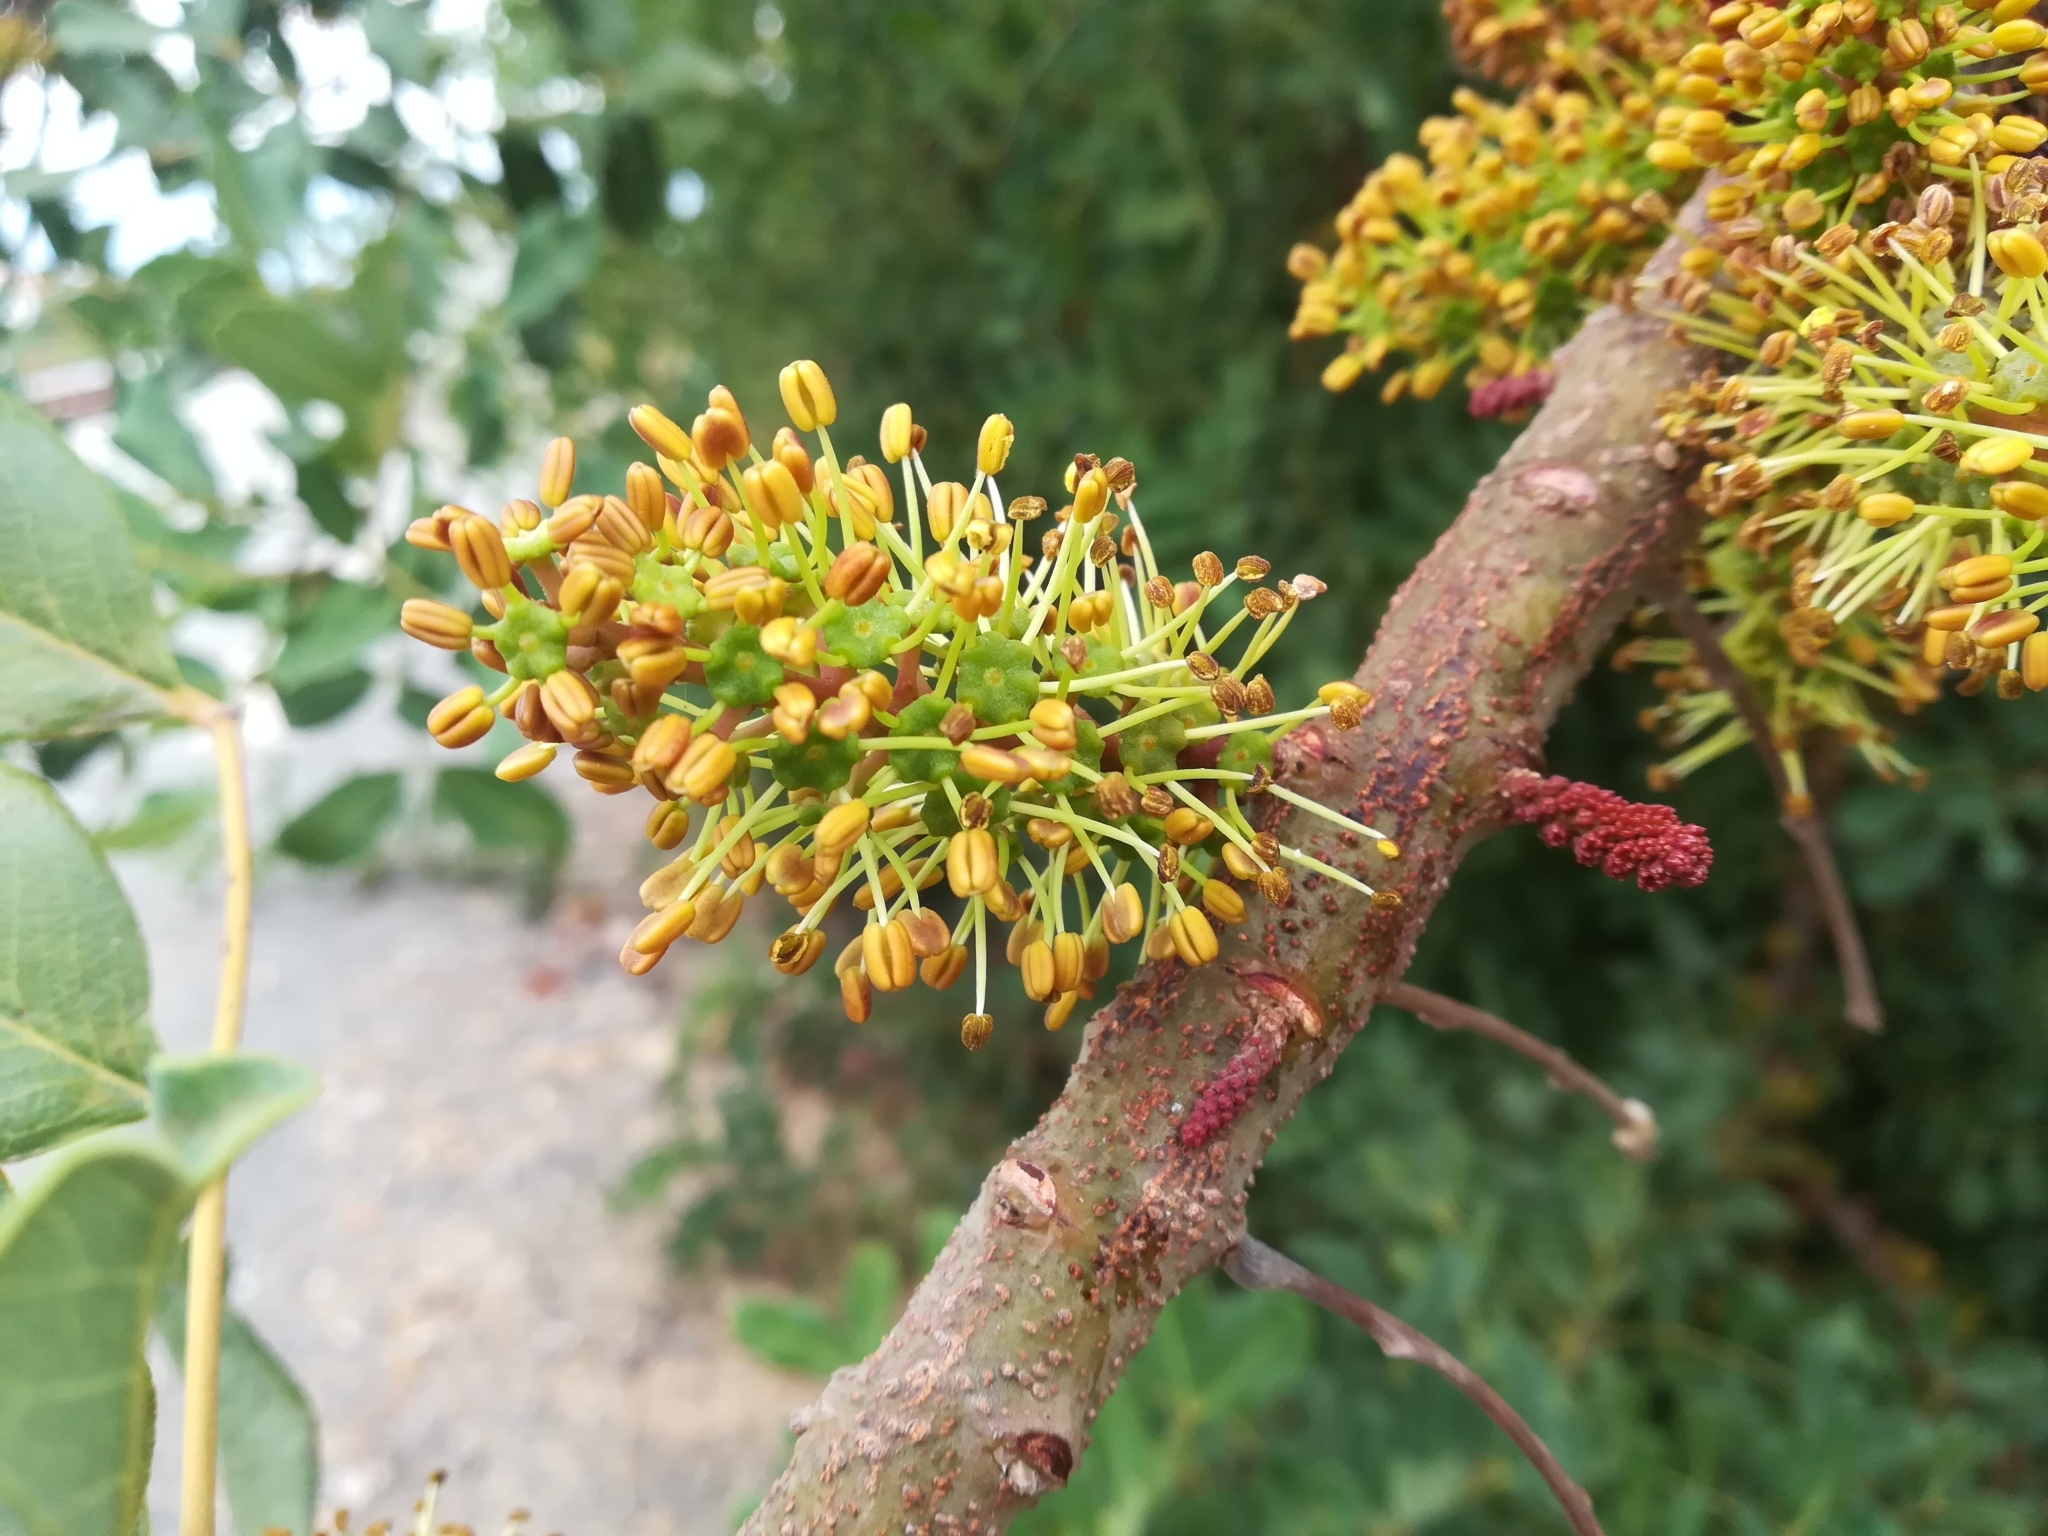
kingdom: Plantae
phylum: Tracheophyta
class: Magnoliopsida
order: Fabales
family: Fabaceae
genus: Ceratonia
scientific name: Ceratonia siliqua
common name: Carob
